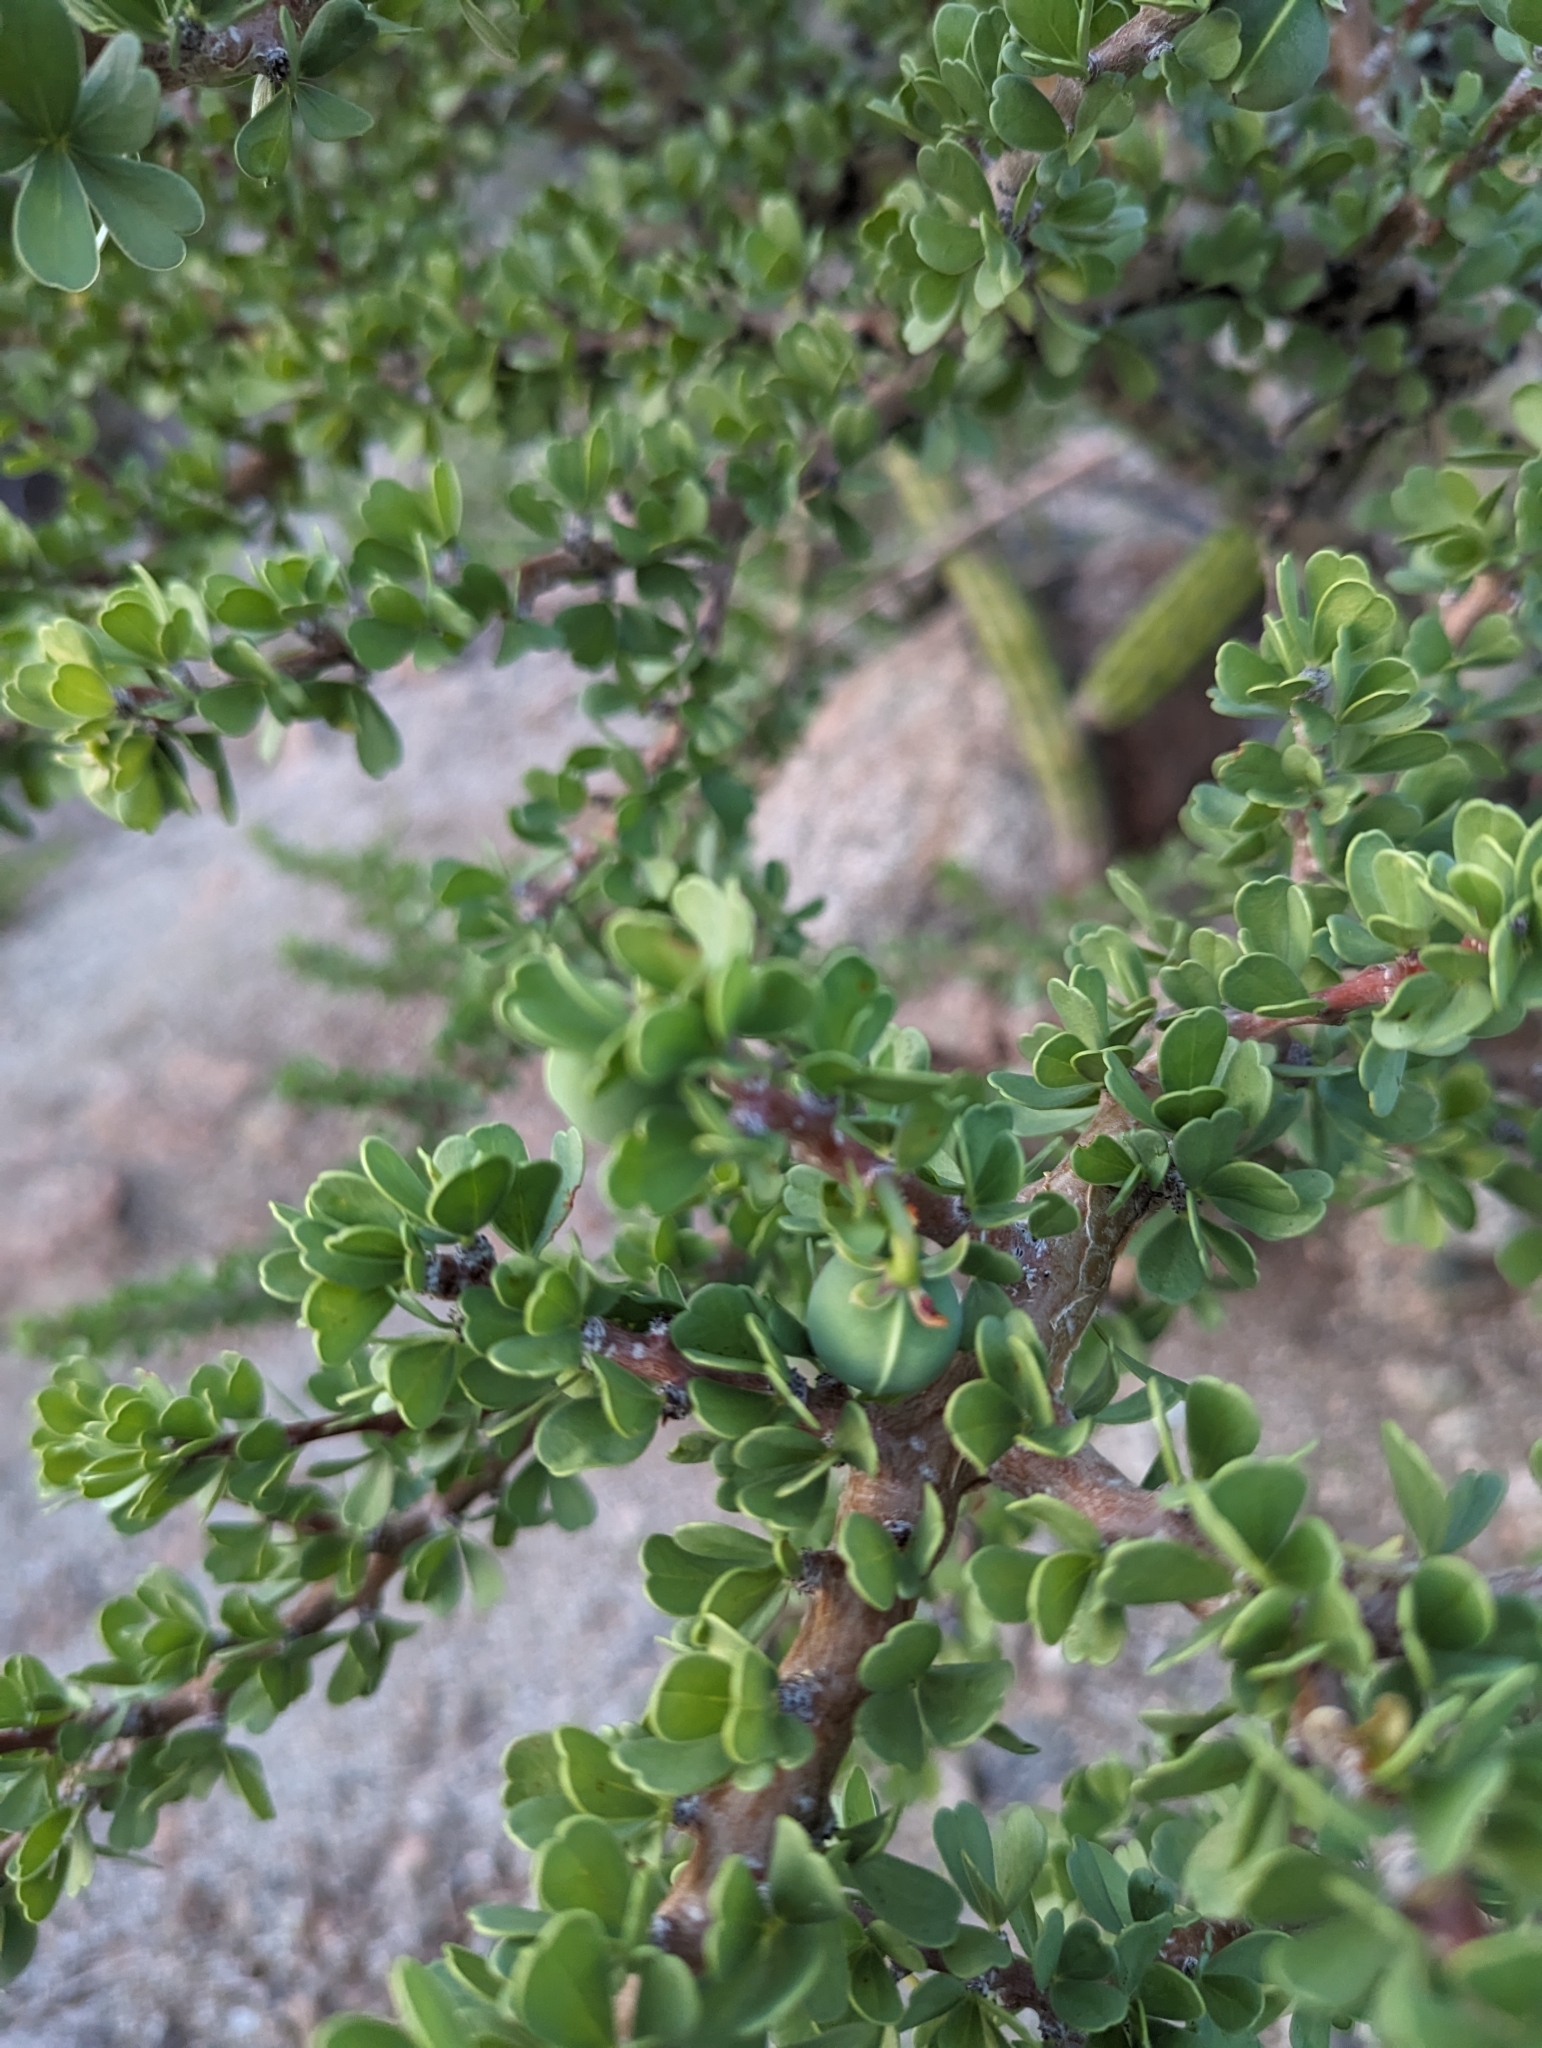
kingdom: Plantae
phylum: Tracheophyta
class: Magnoliopsida
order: Malpighiales
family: Euphorbiaceae
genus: Jatropha
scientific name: Jatropha cuneata
